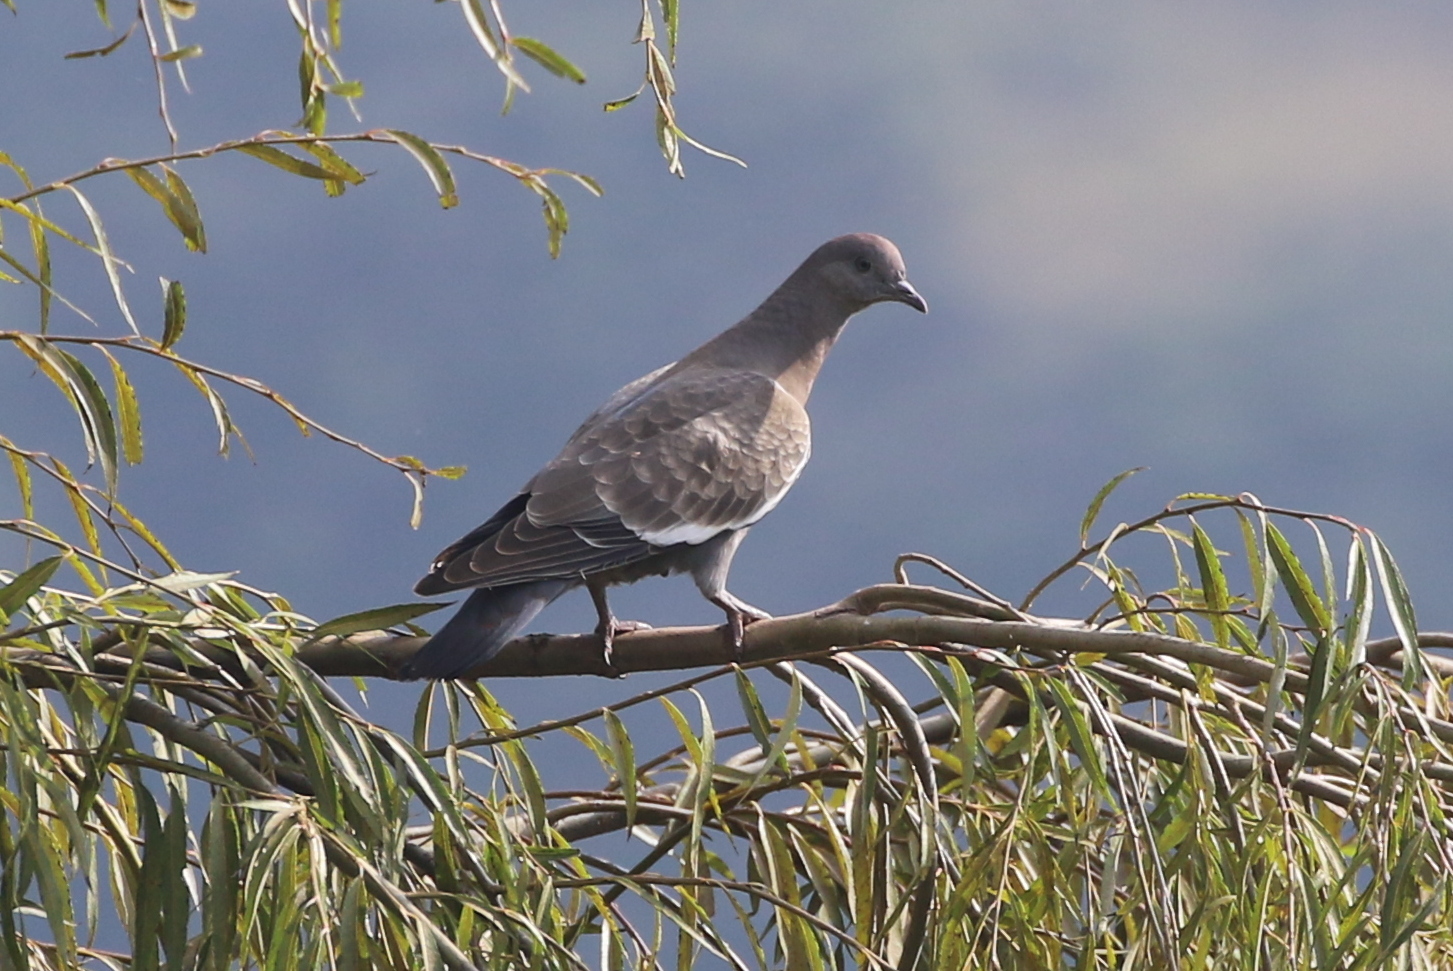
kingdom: Animalia
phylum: Chordata
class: Aves
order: Columbiformes
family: Columbidae
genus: Patagioenas
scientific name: Patagioenas maculosa
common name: Spot-winged pigeon
